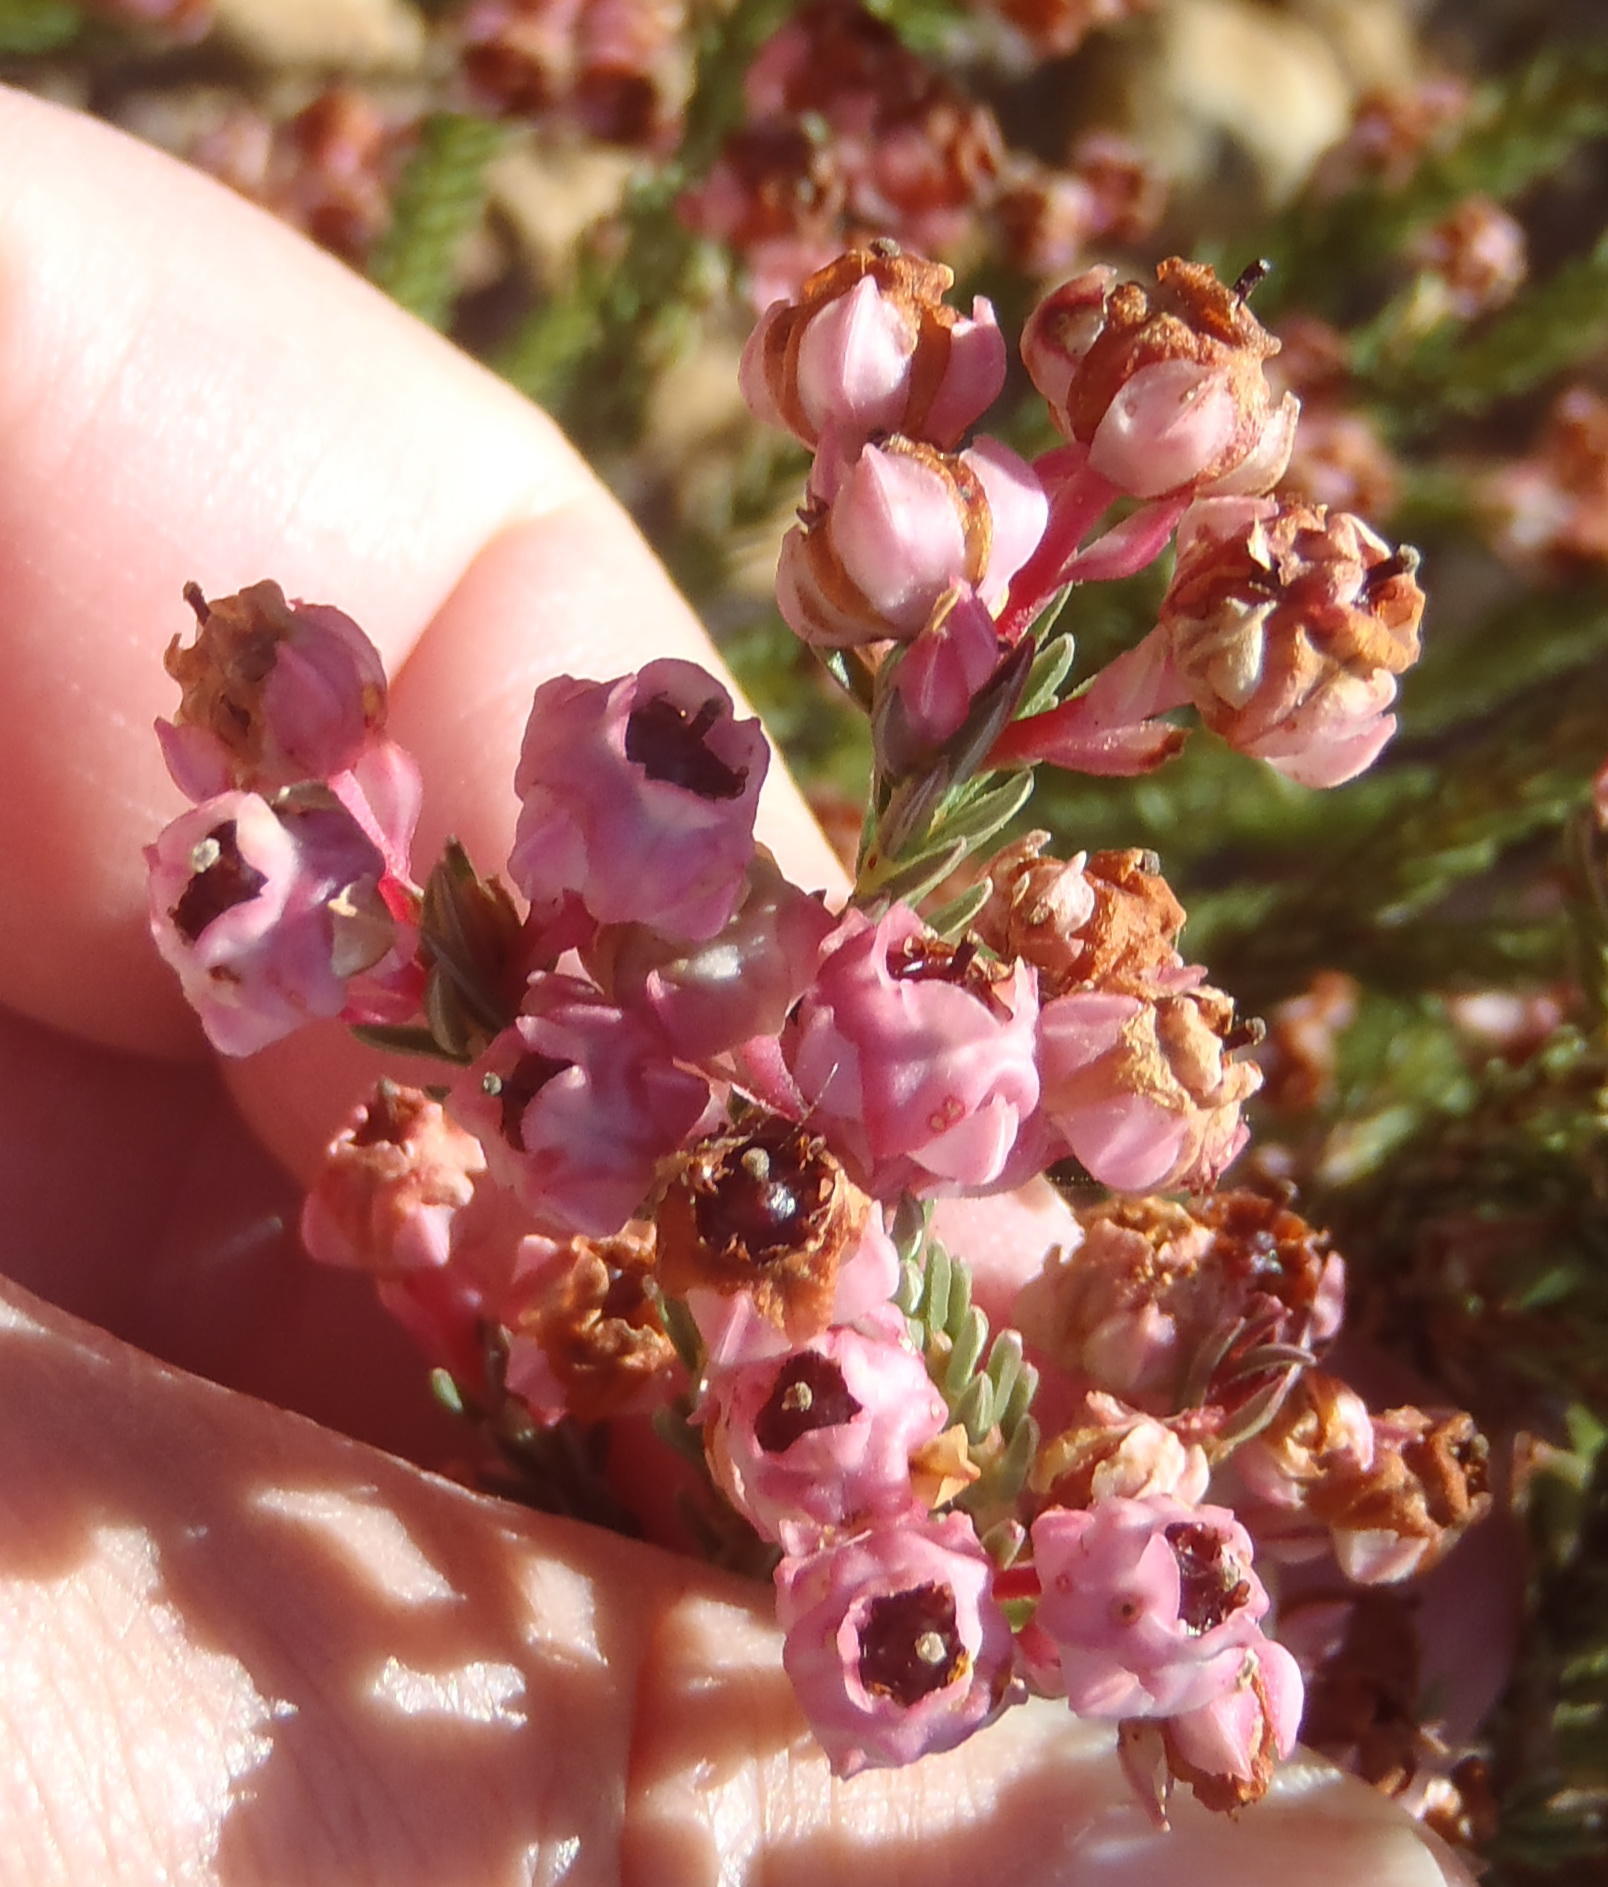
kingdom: Plantae
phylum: Tracheophyta
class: Magnoliopsida
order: Ericales
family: Ericaceae
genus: Erica
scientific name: Erica baccans
